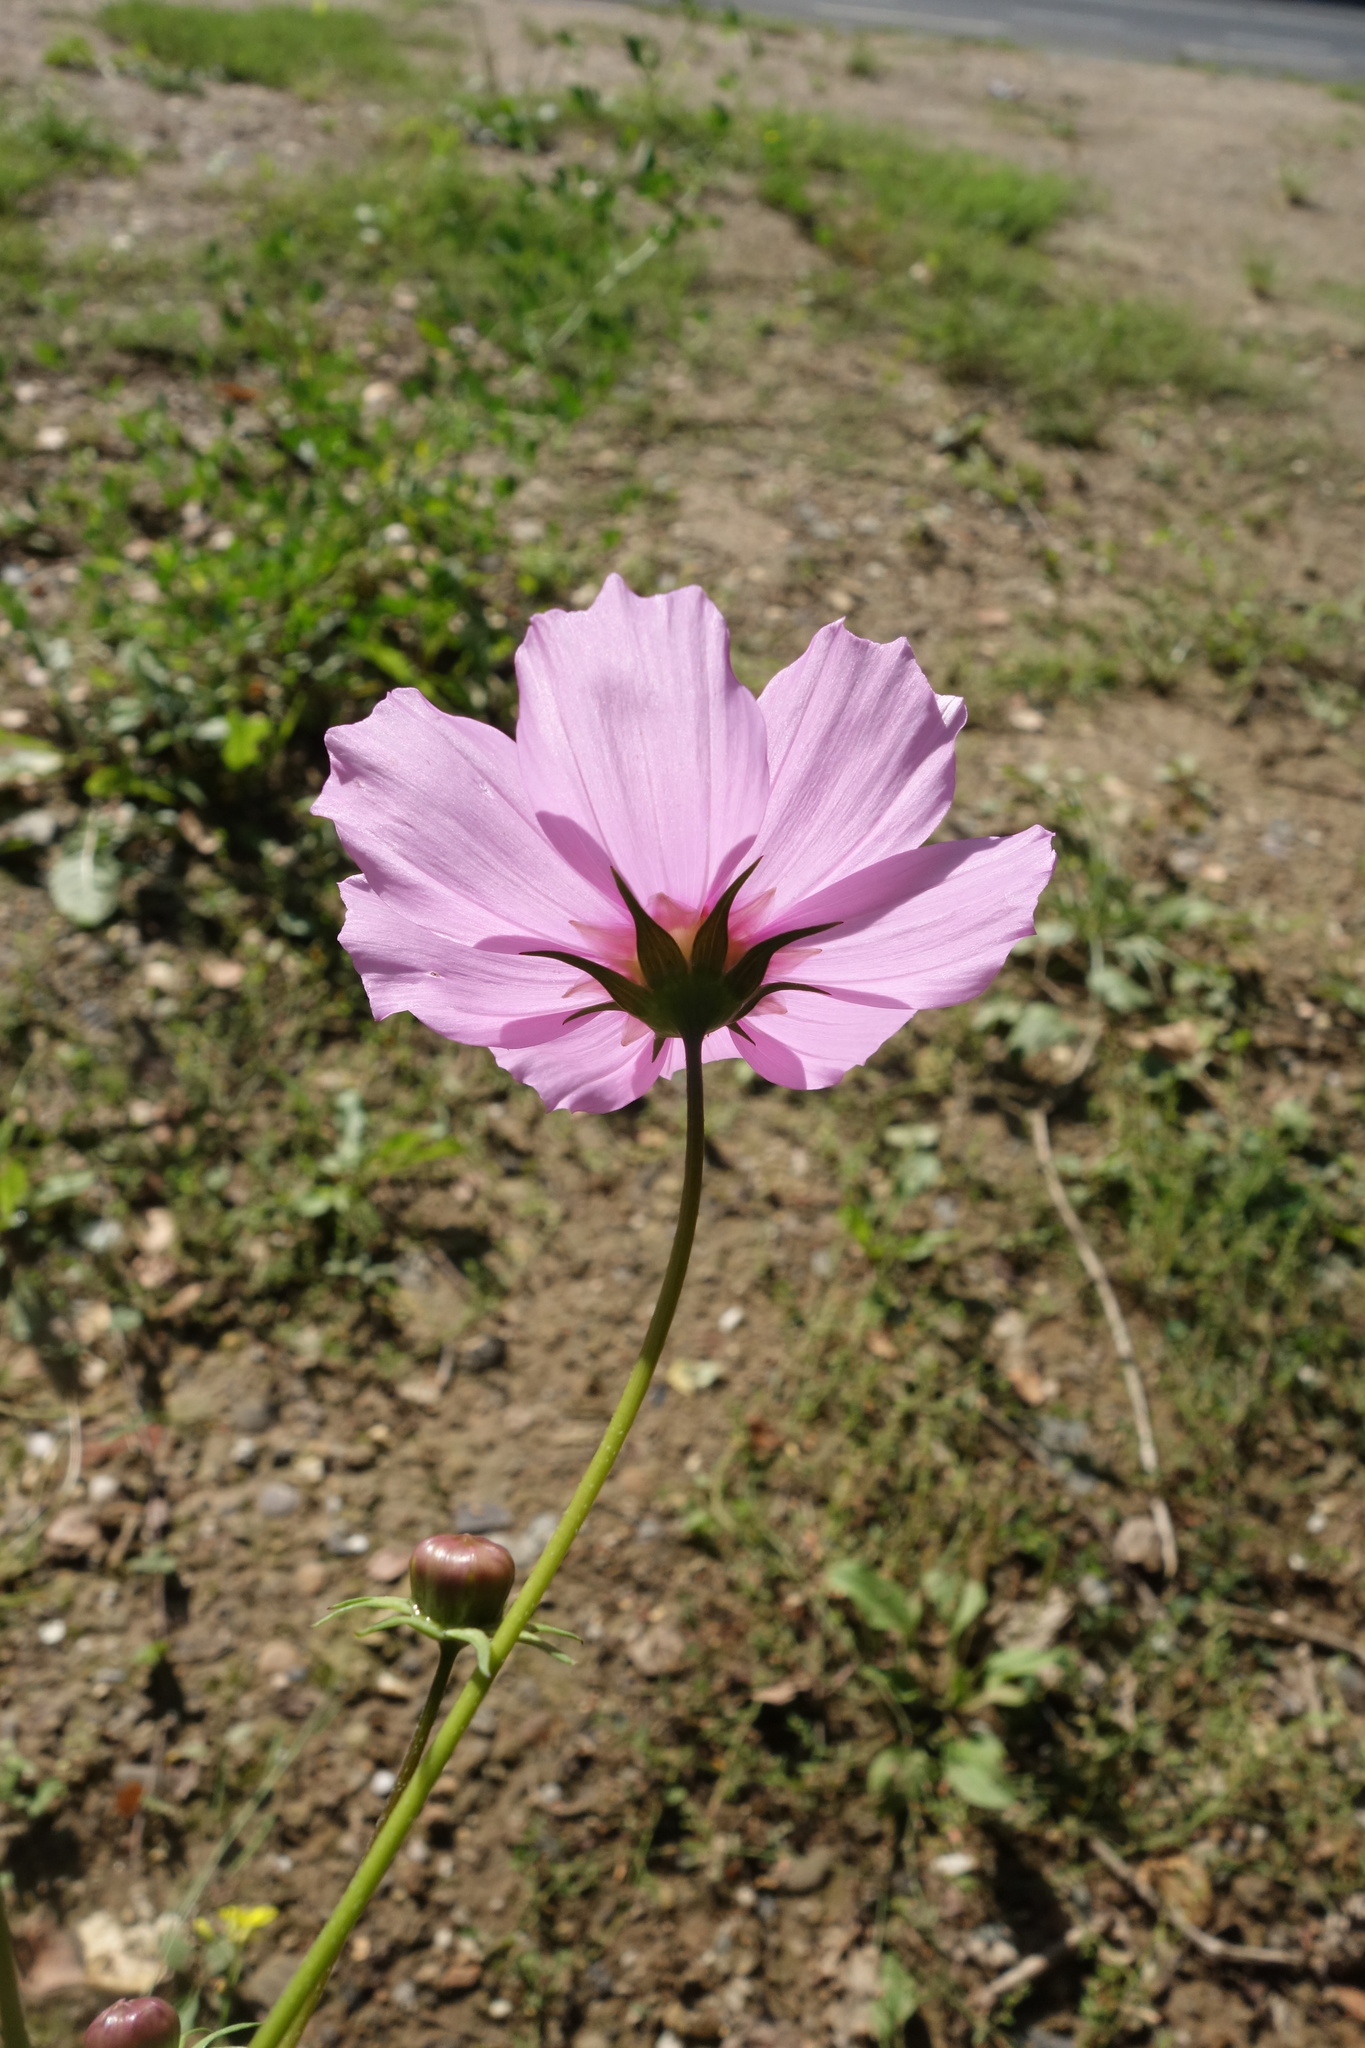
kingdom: Plantae
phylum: Tracheophyta
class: Magnoliopsida
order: Asterales
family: Asteraceae
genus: Cosmos
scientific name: Cosmos bipinnatus
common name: Garden cosmos
